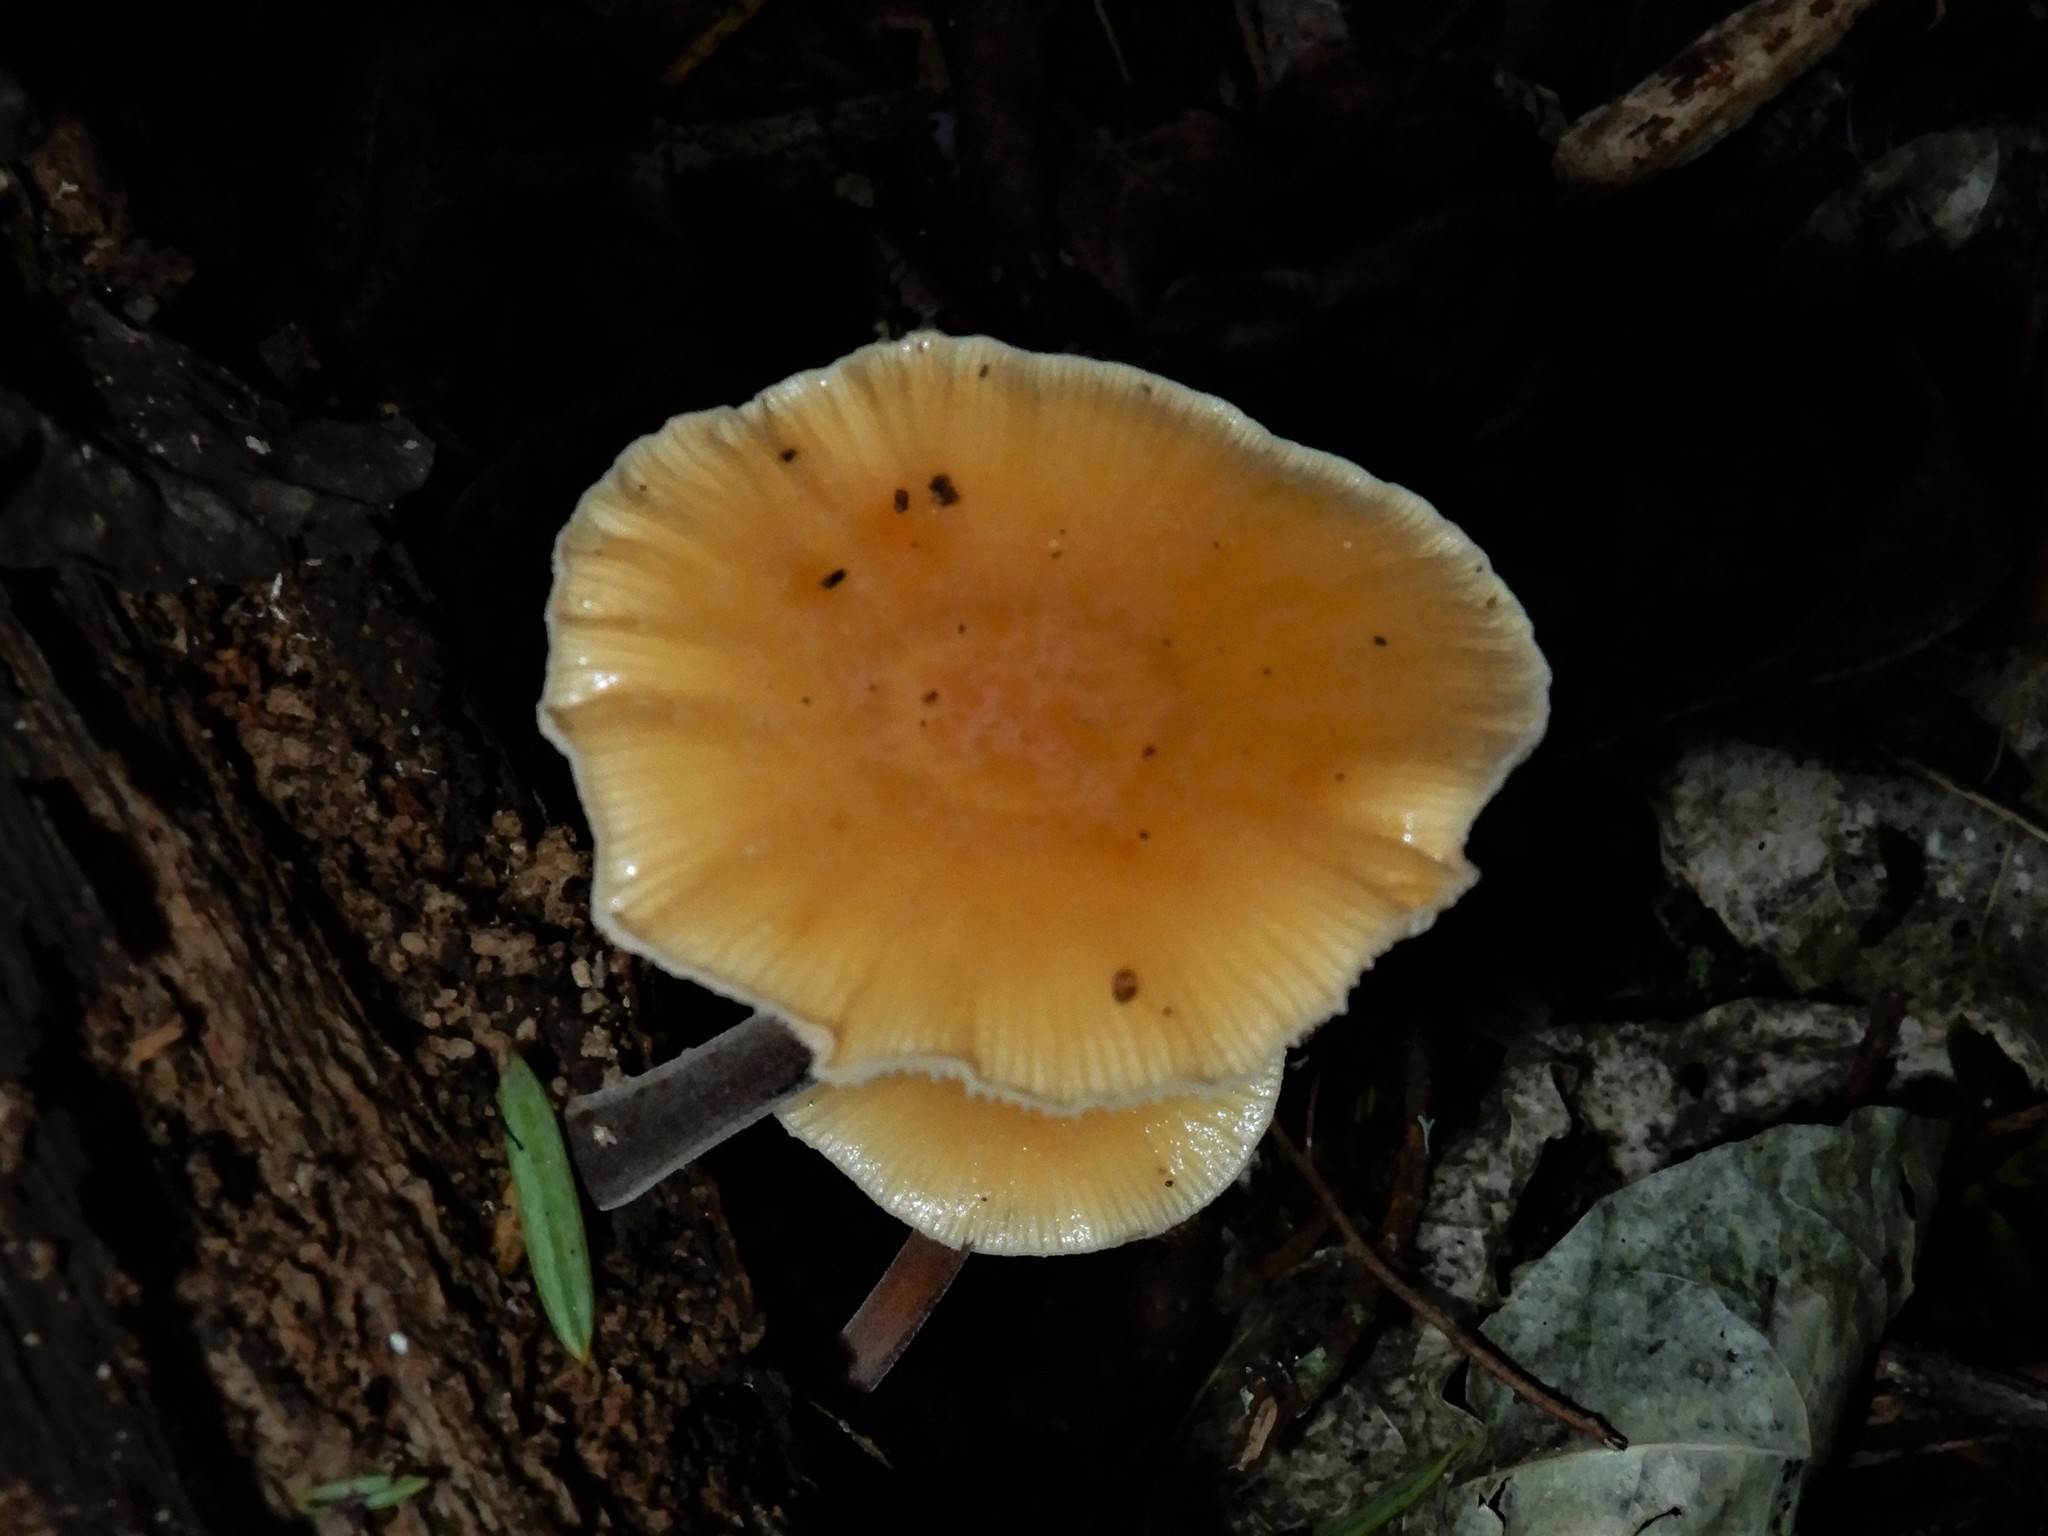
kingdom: Fungi
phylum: Basidiomycota
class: Agaricomycetes
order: Agaricales
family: Physalacriaceae
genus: Flammulina
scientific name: Flammulina velutipes
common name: Velvet shank
